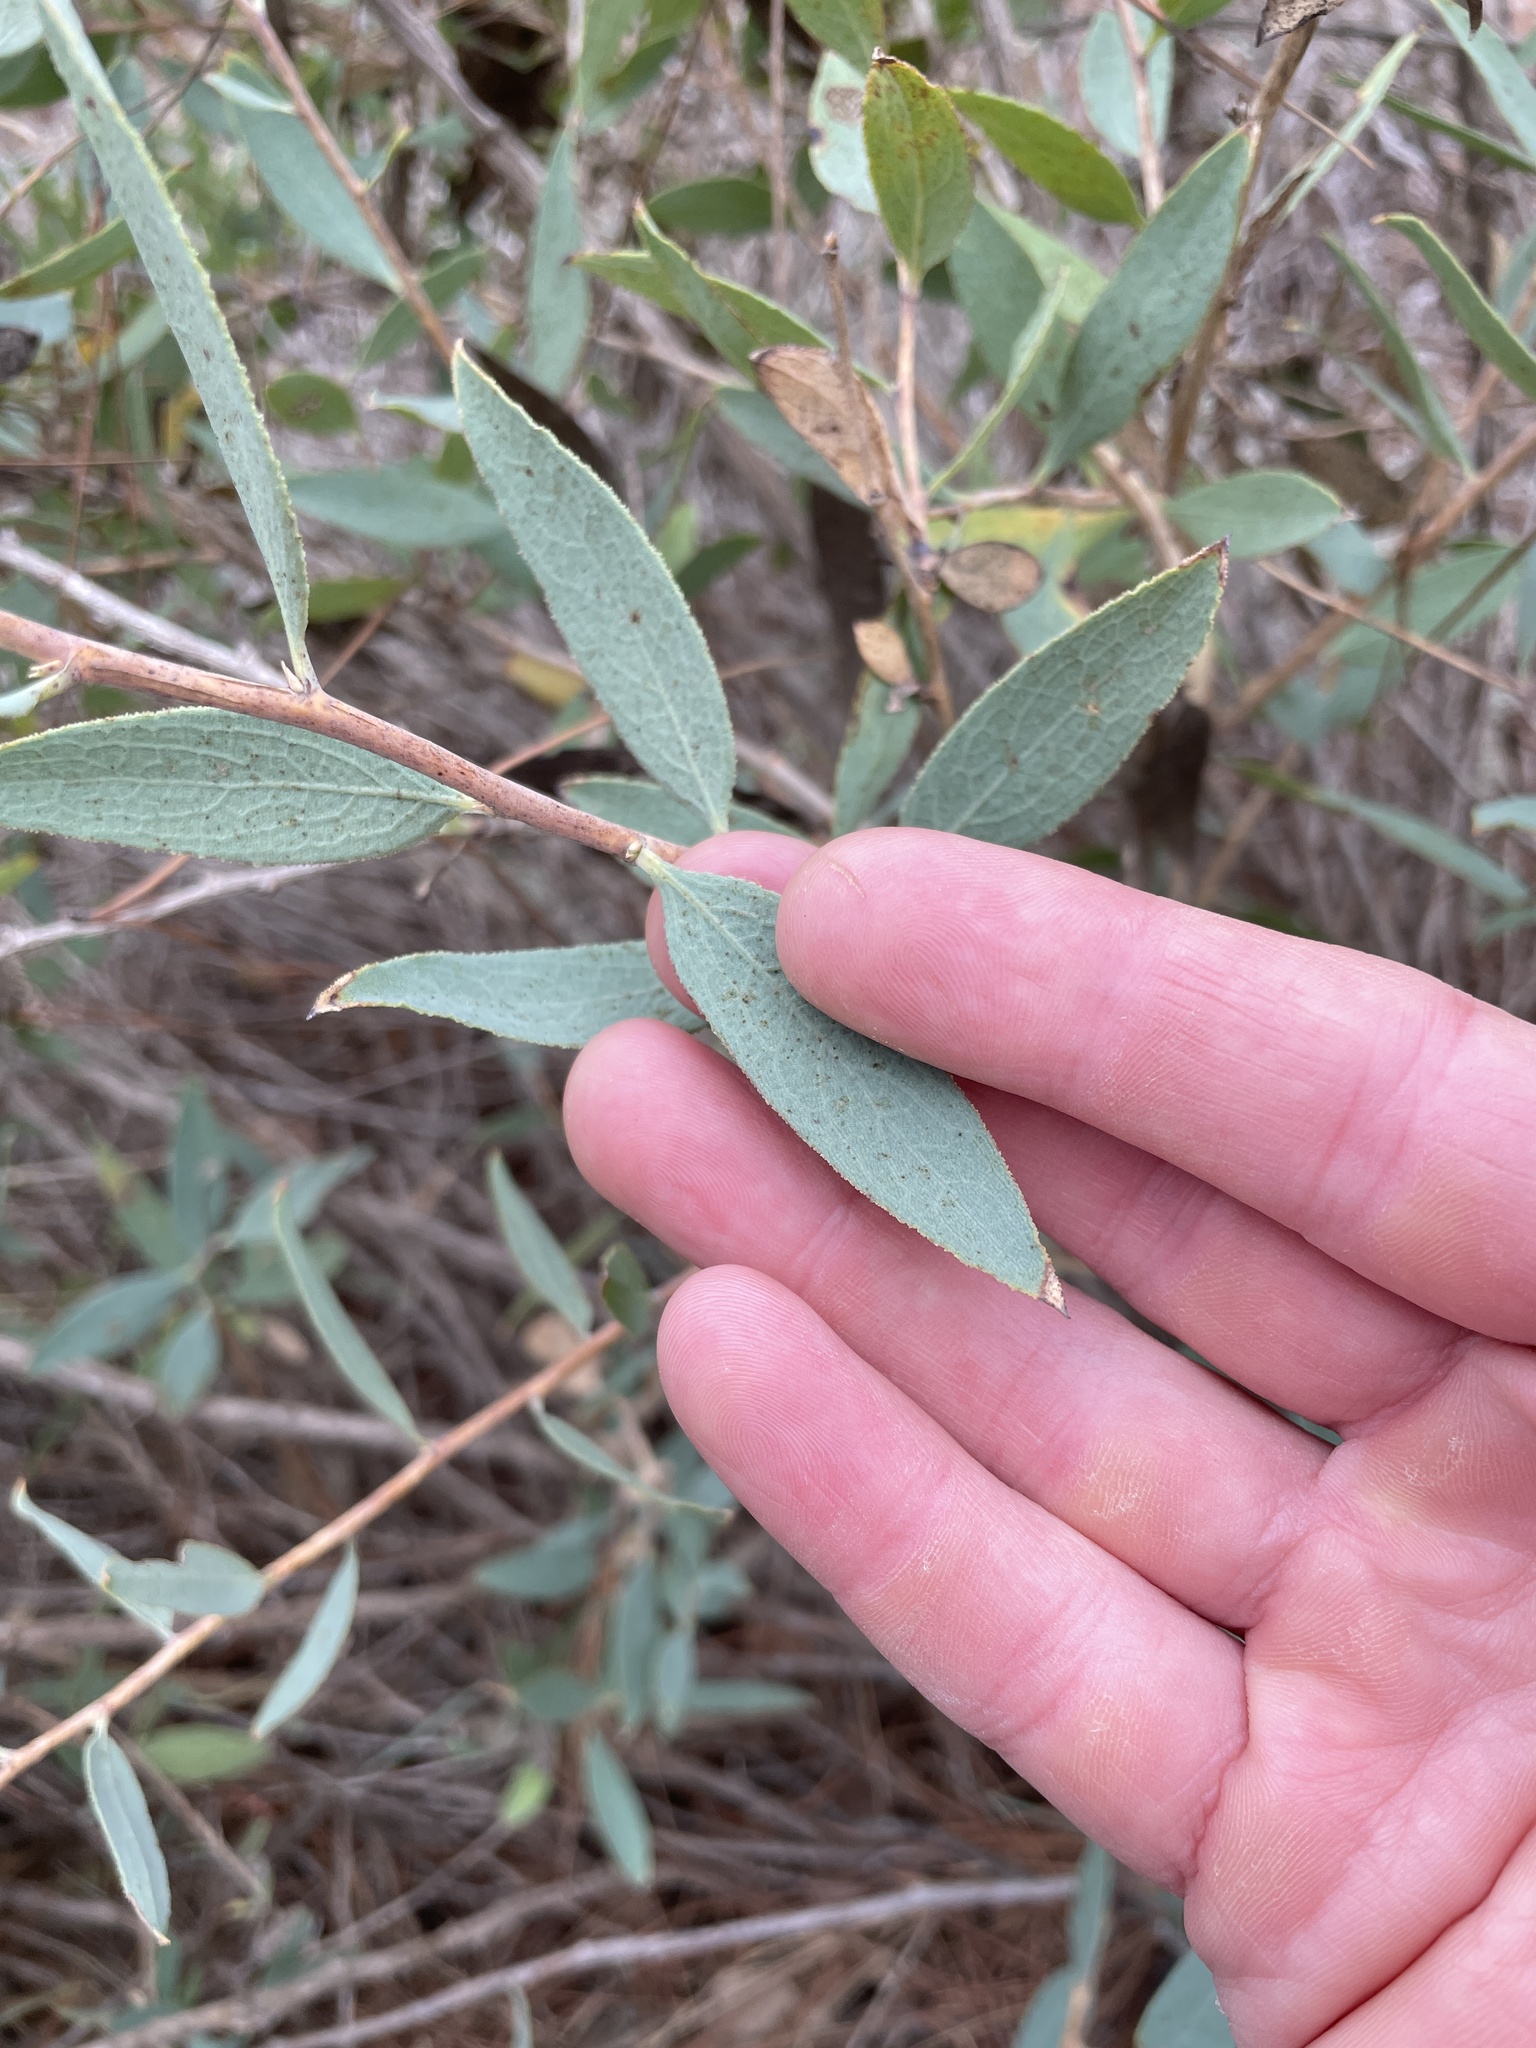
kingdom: Plantae
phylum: Tracheophyta
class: Magnoliopsida
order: Ranunculales
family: Papaveraceae
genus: Dendromecon
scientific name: Dendromecon rigida
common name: Tree poppy
